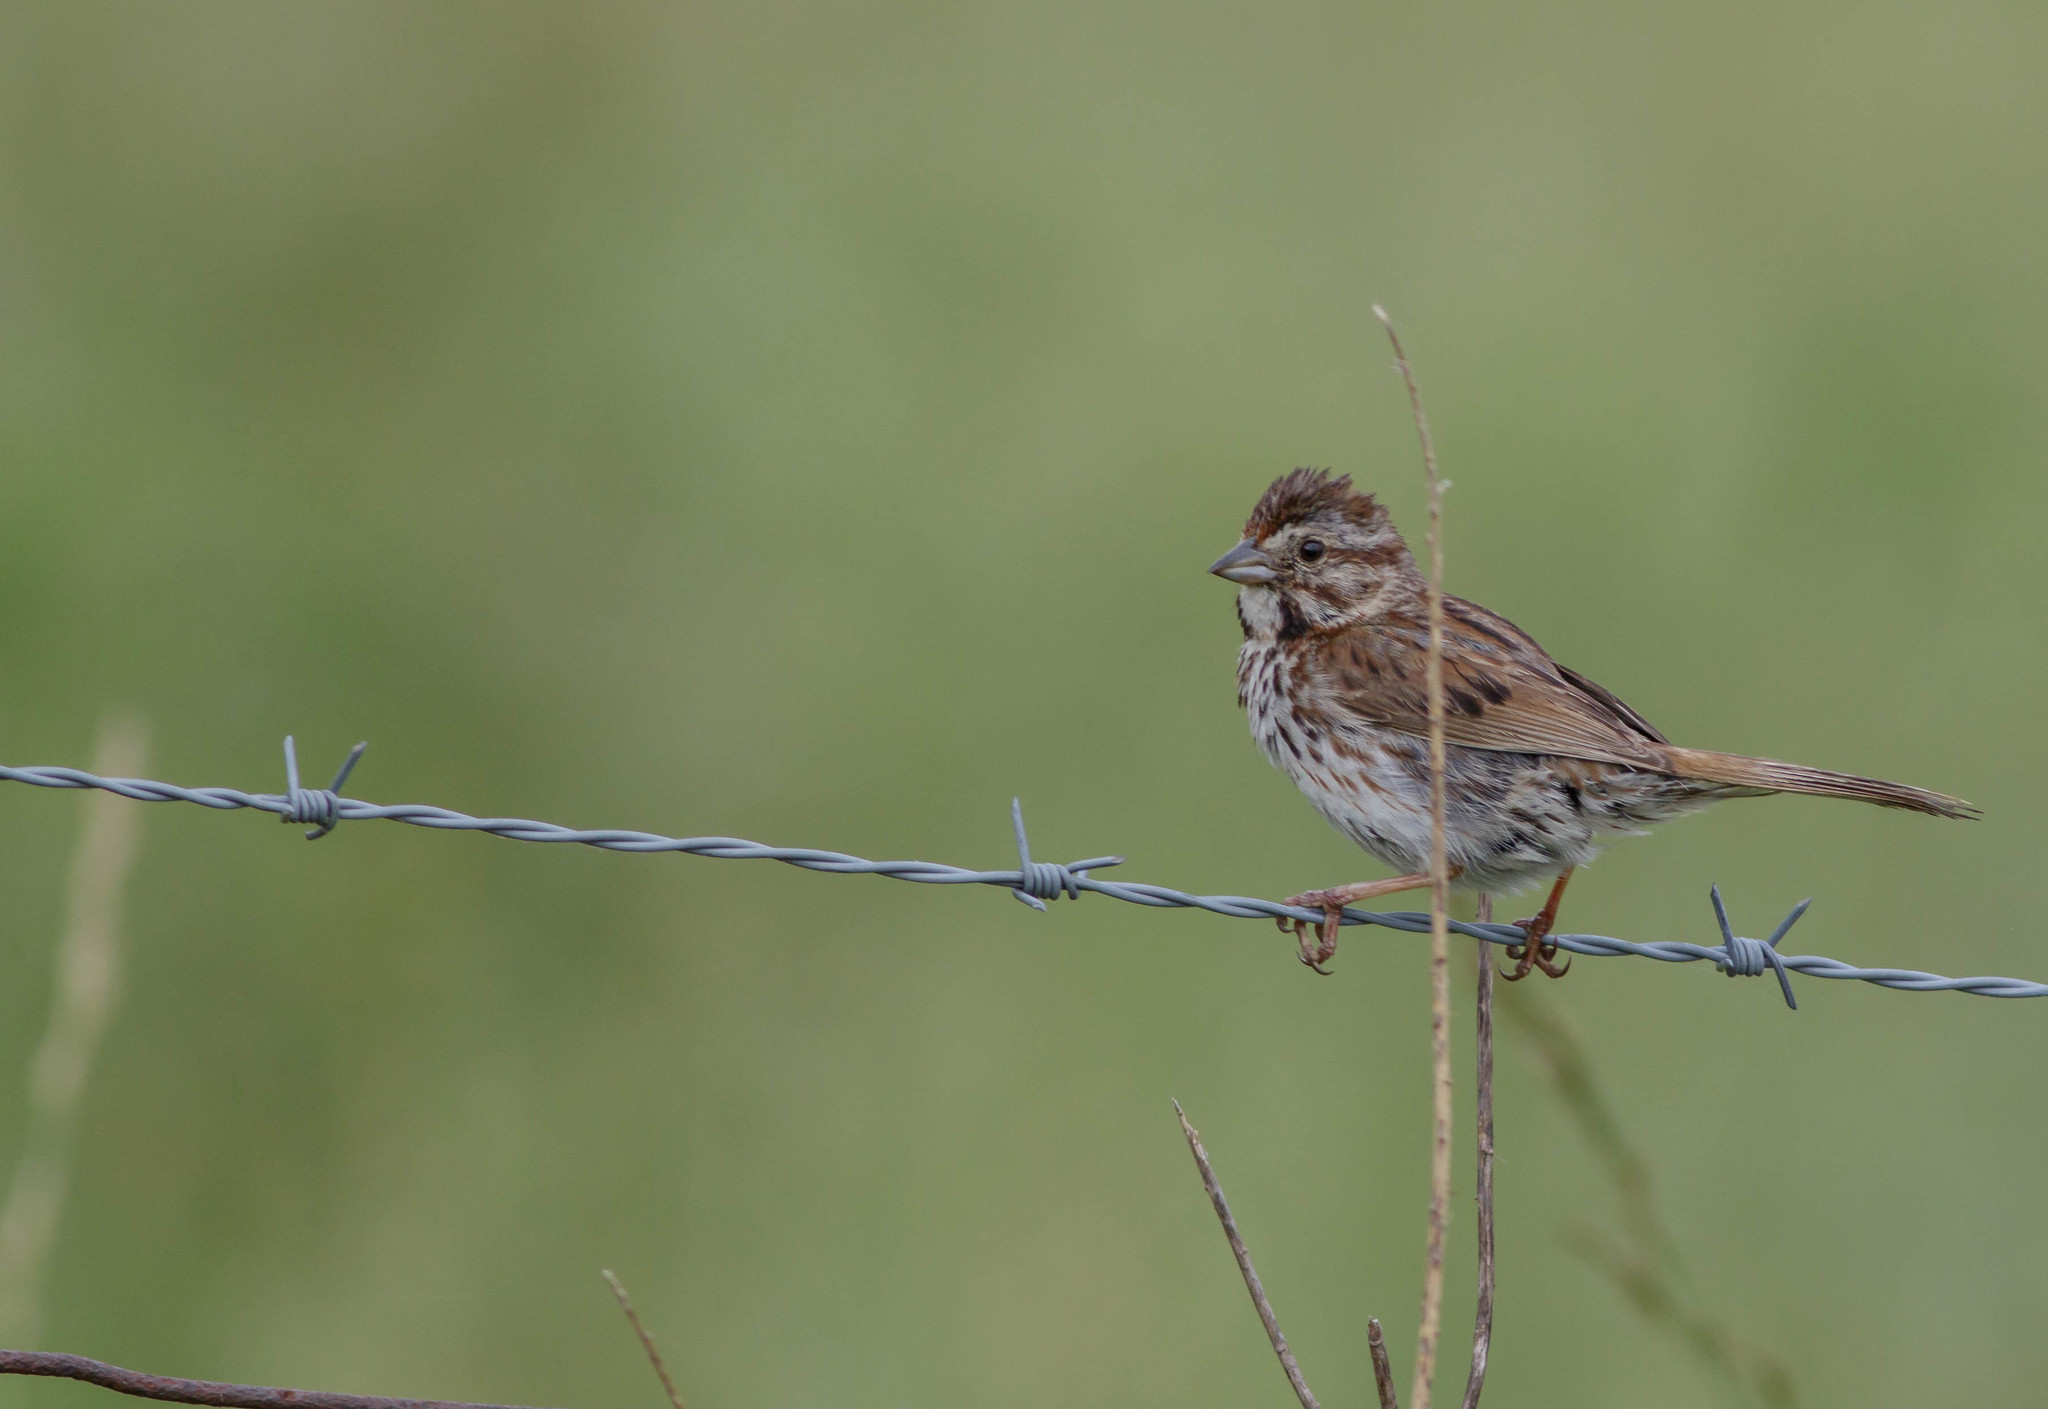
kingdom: Animalia
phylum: Chordata
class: Aves
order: Passeriformes
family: Passerellidae
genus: Melospiza
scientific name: Melospiza melodia
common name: Song sparrow
